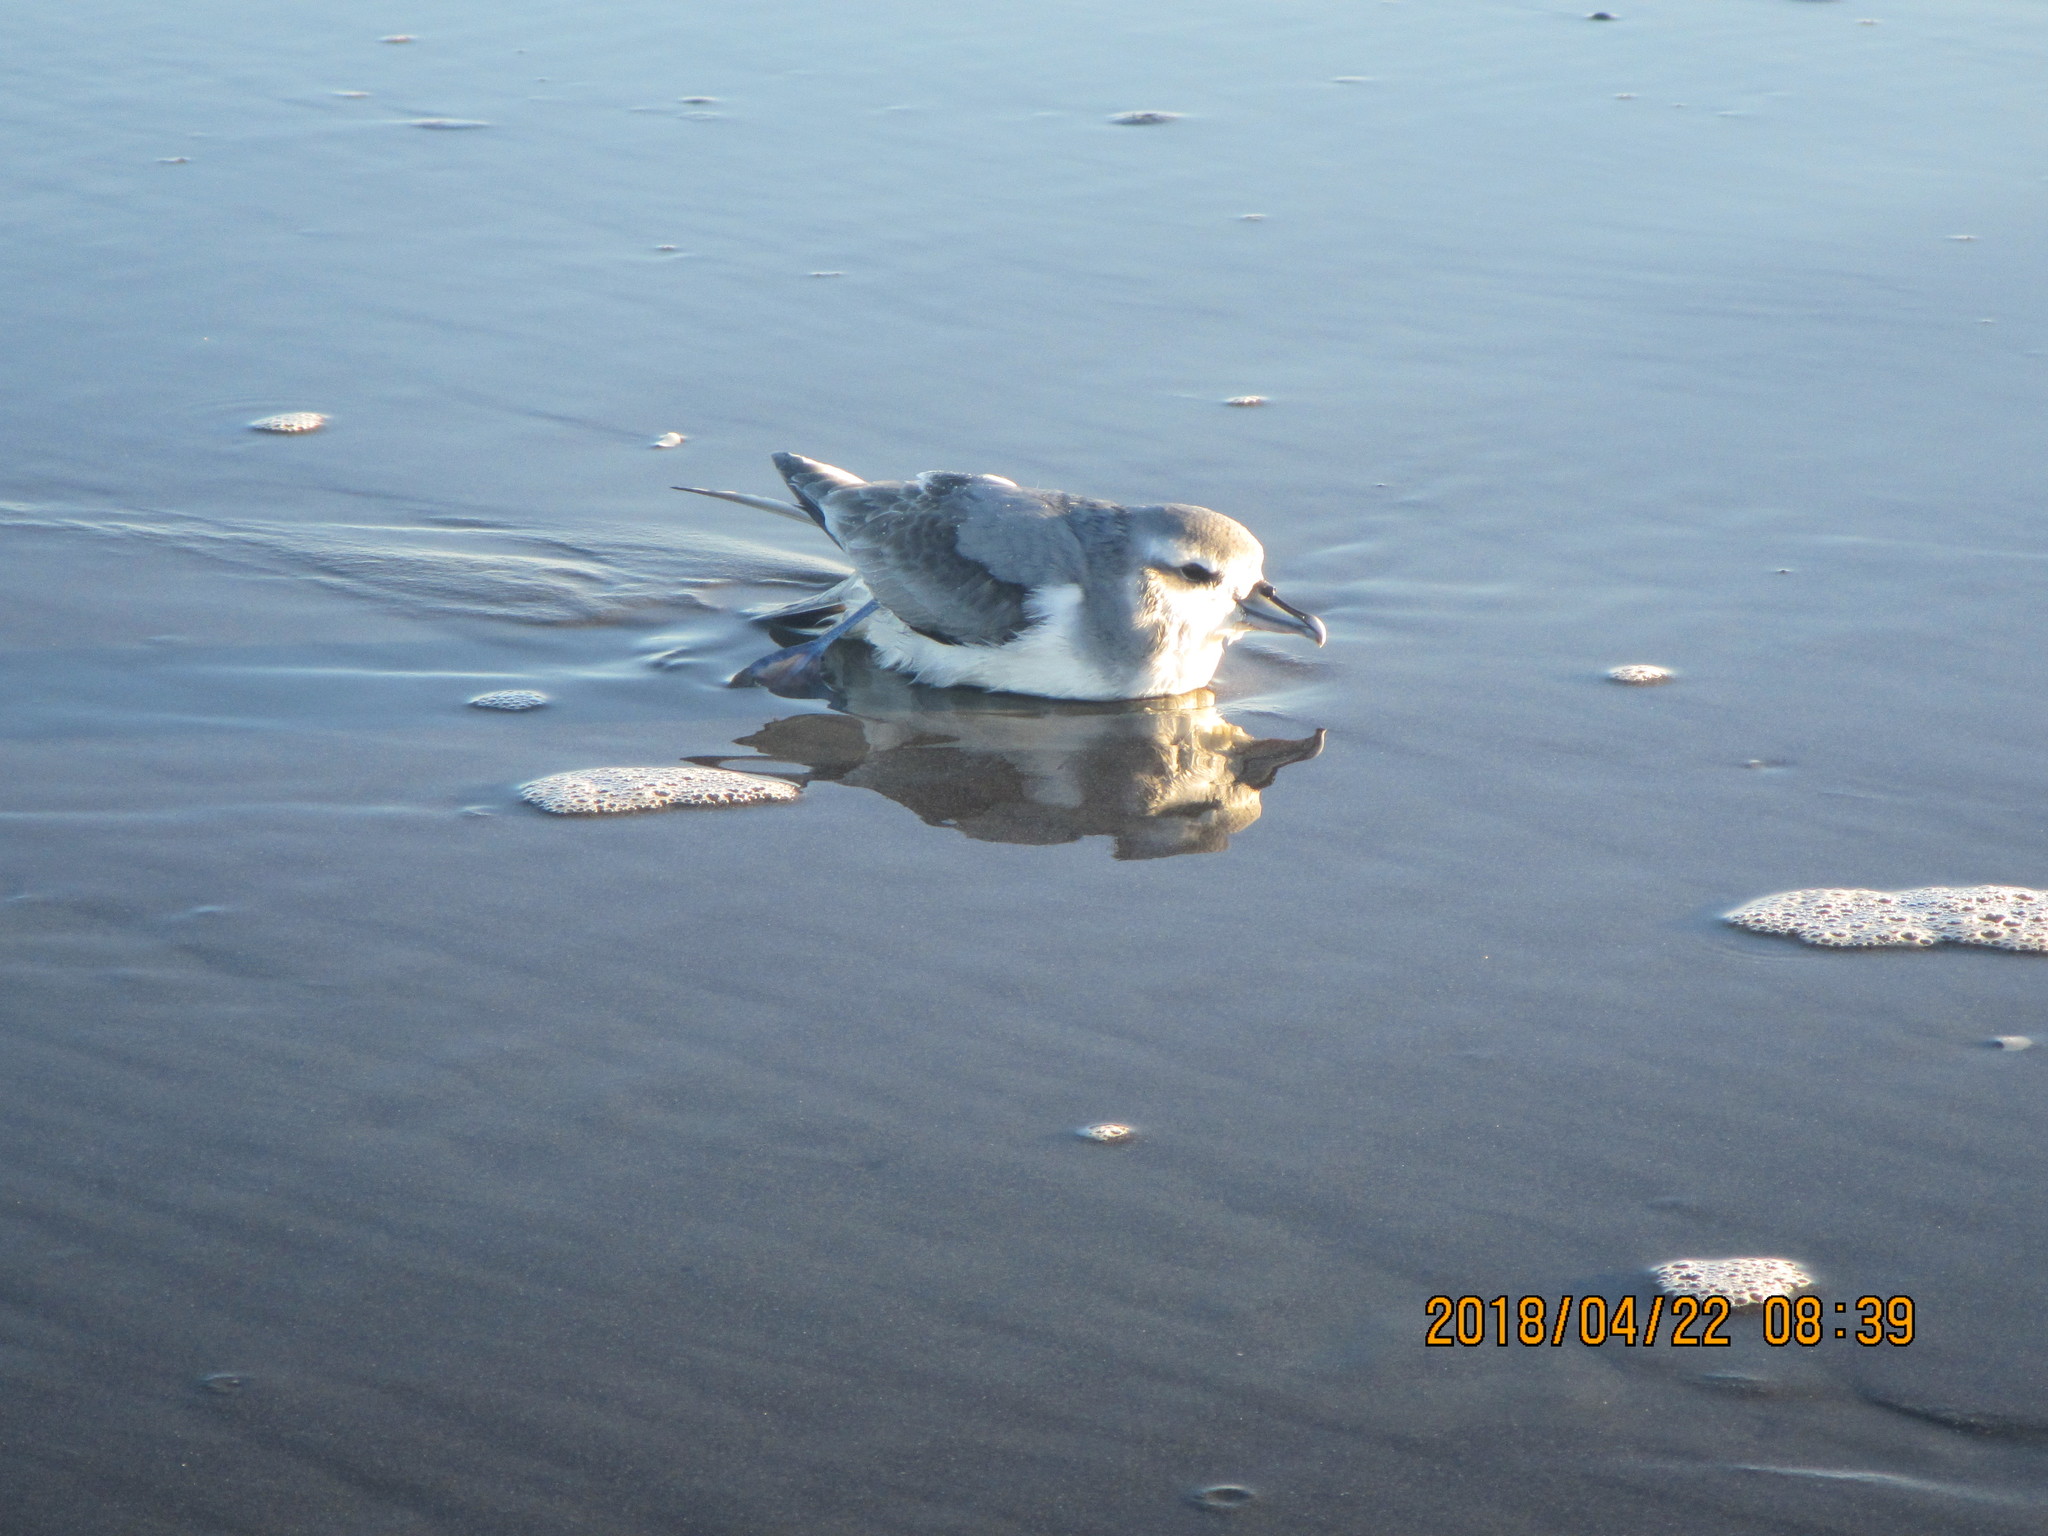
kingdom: Animalia
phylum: Chordata
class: Aves
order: Procellariiformes
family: Procellariidae
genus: Pachyptila
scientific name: Pachyptila turtur
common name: Fairy prion
